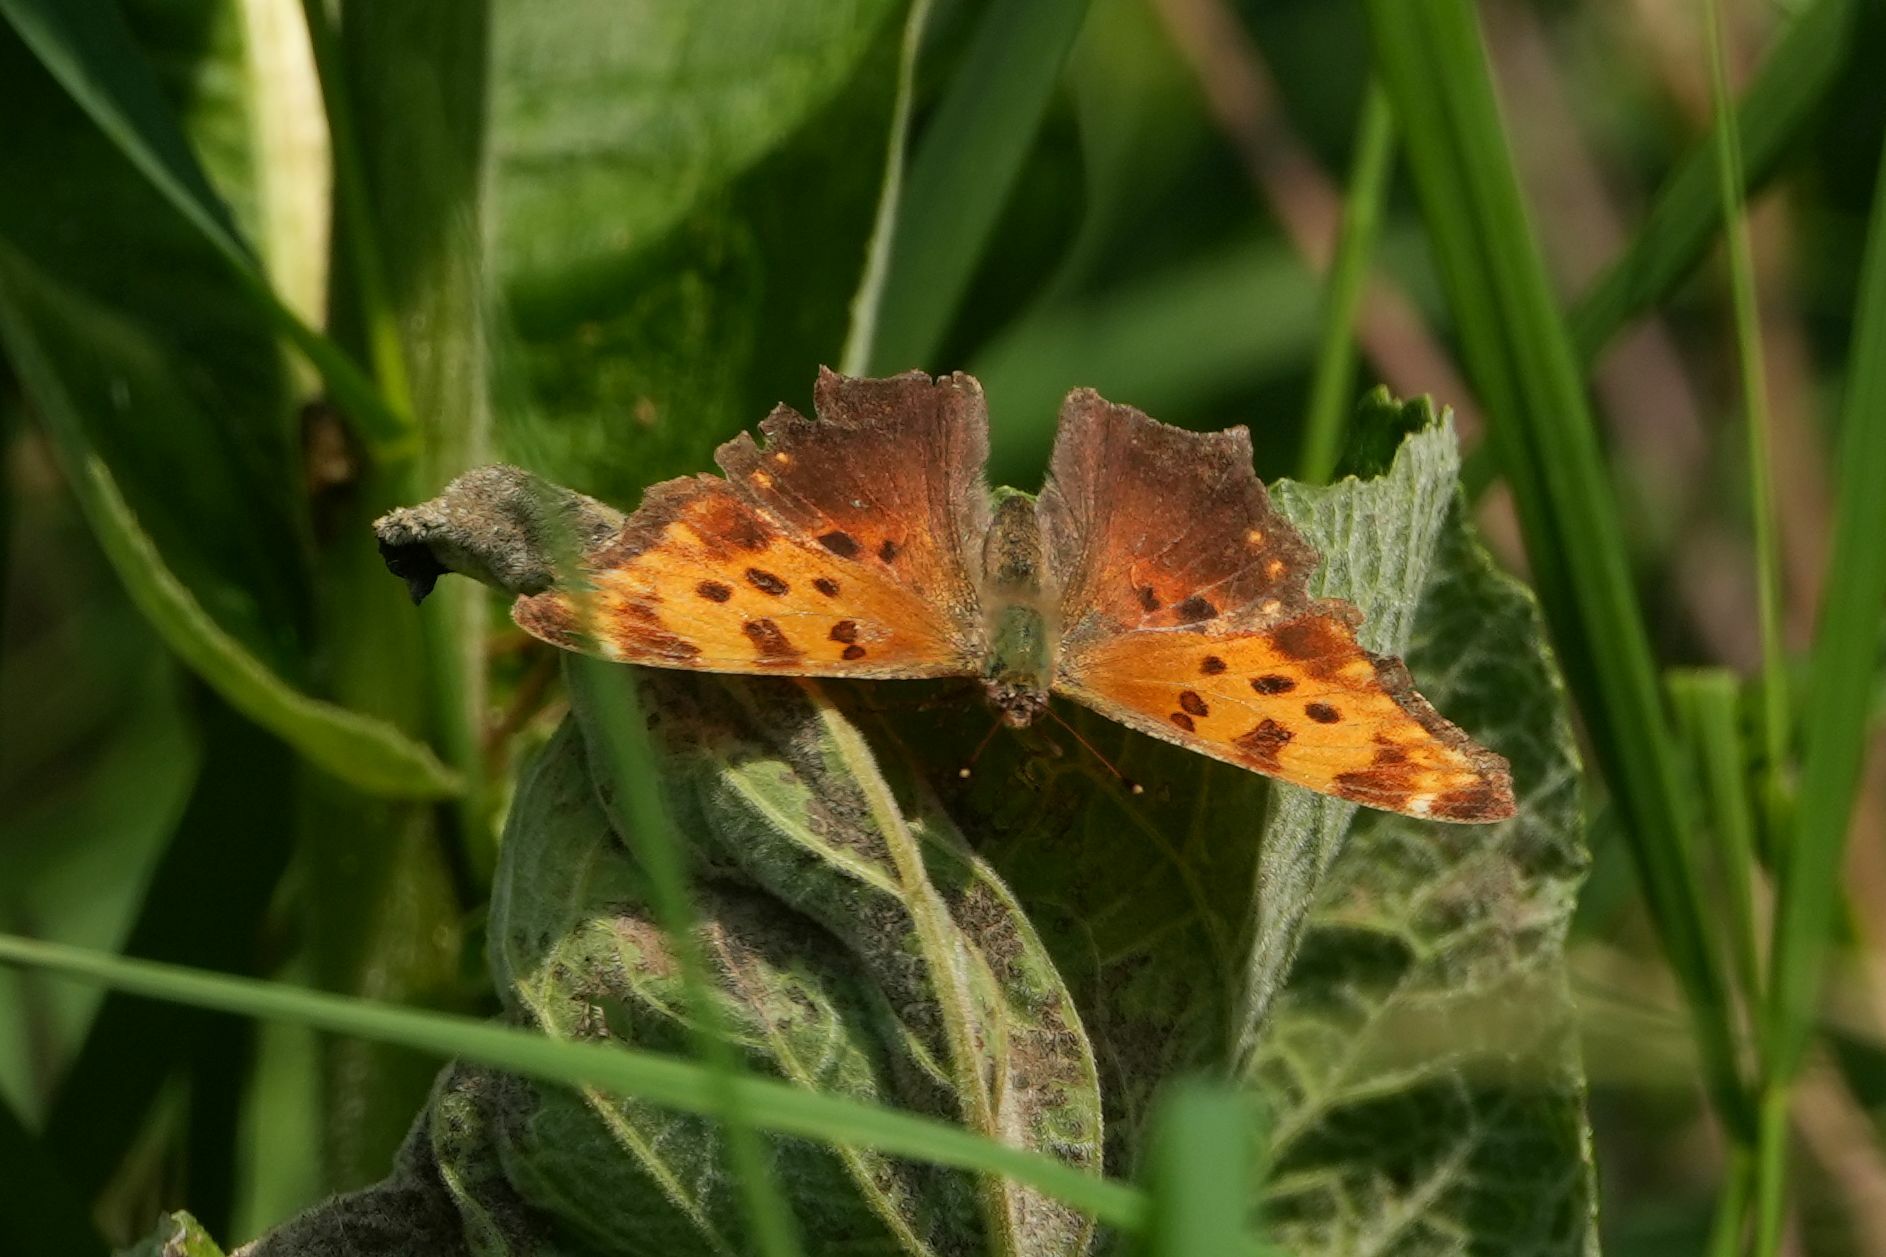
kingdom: Animalia
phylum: Arthropoda
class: Insecta
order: Lepidoptera
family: Nymphalidae
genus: Polygonia
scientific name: Polygonia comma
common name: Eastern comma
